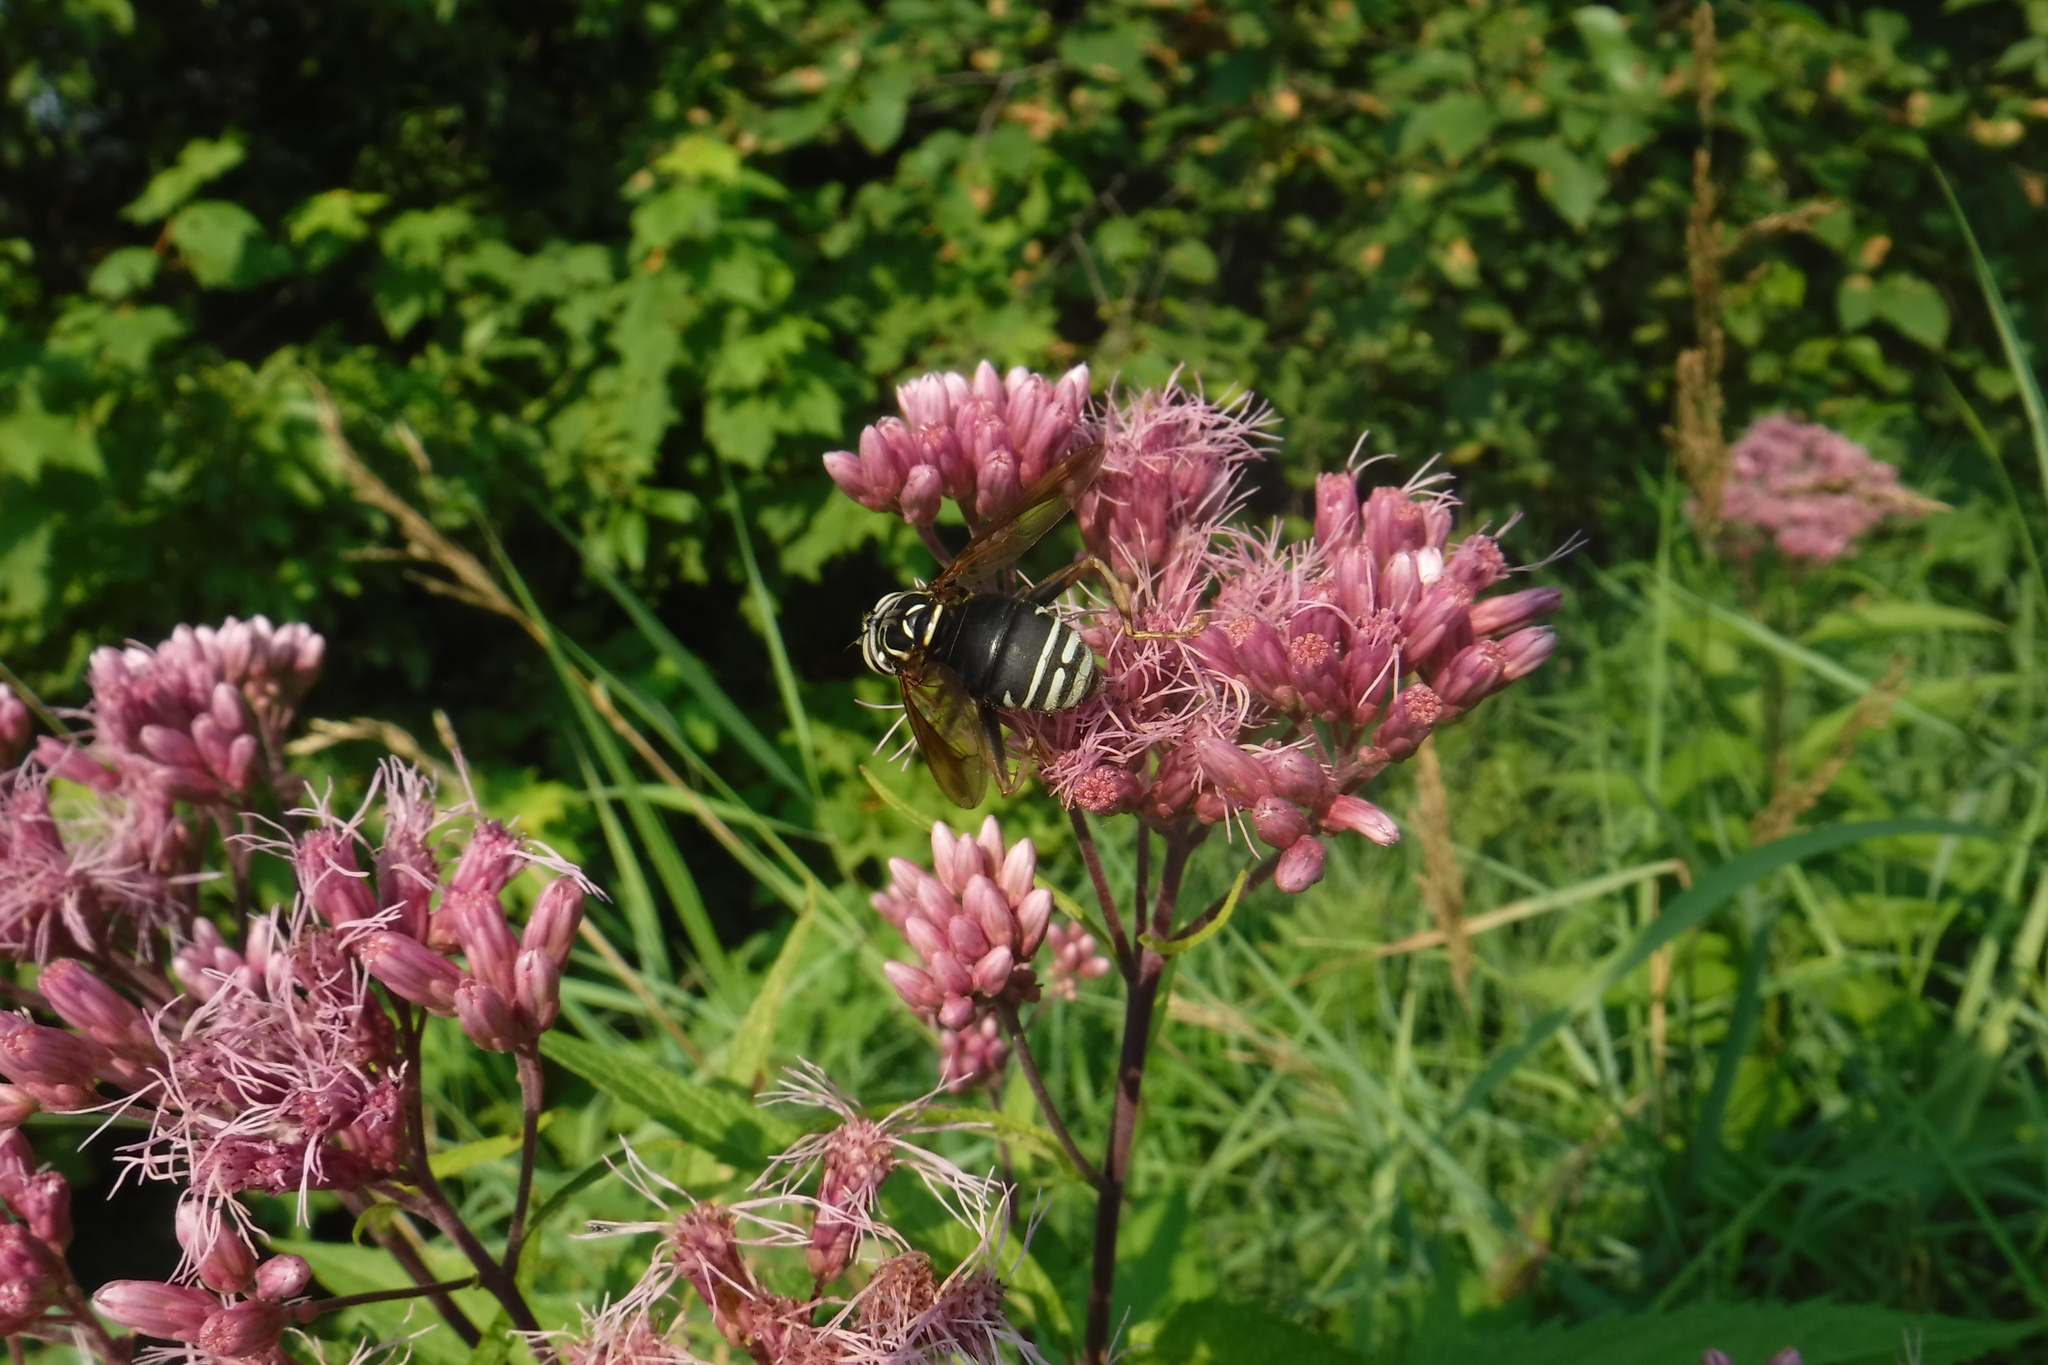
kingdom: Animalia
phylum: Arthropoda
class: Insecta
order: Diptera
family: Syrphidae
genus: Spilomyia
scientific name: Spilomyia fusca
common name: Bald-faced hornet fly
